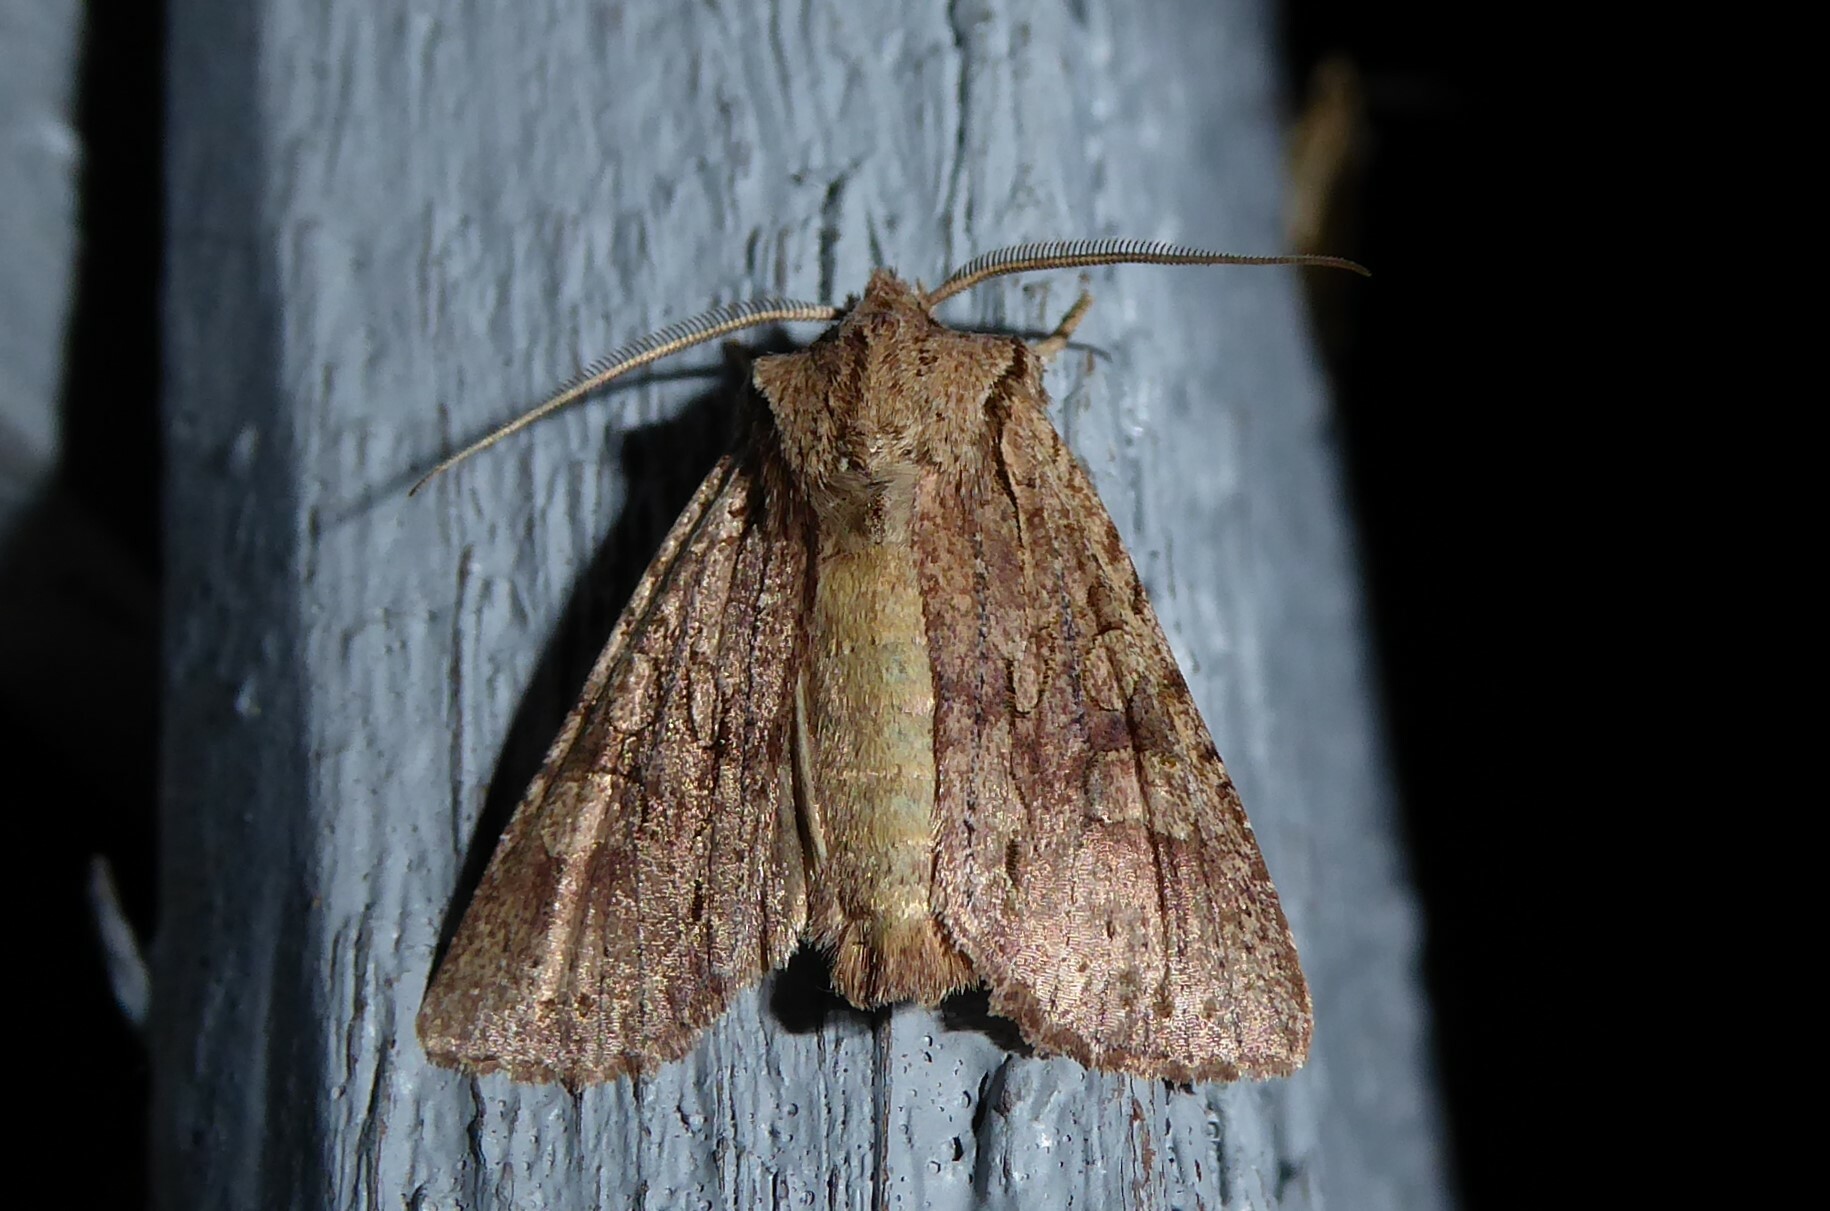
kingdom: Animalia
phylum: Arthropoda
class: Insecta
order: Lepidoptera
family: Noctuidae
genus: Ichneutica
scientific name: Ichneutica
